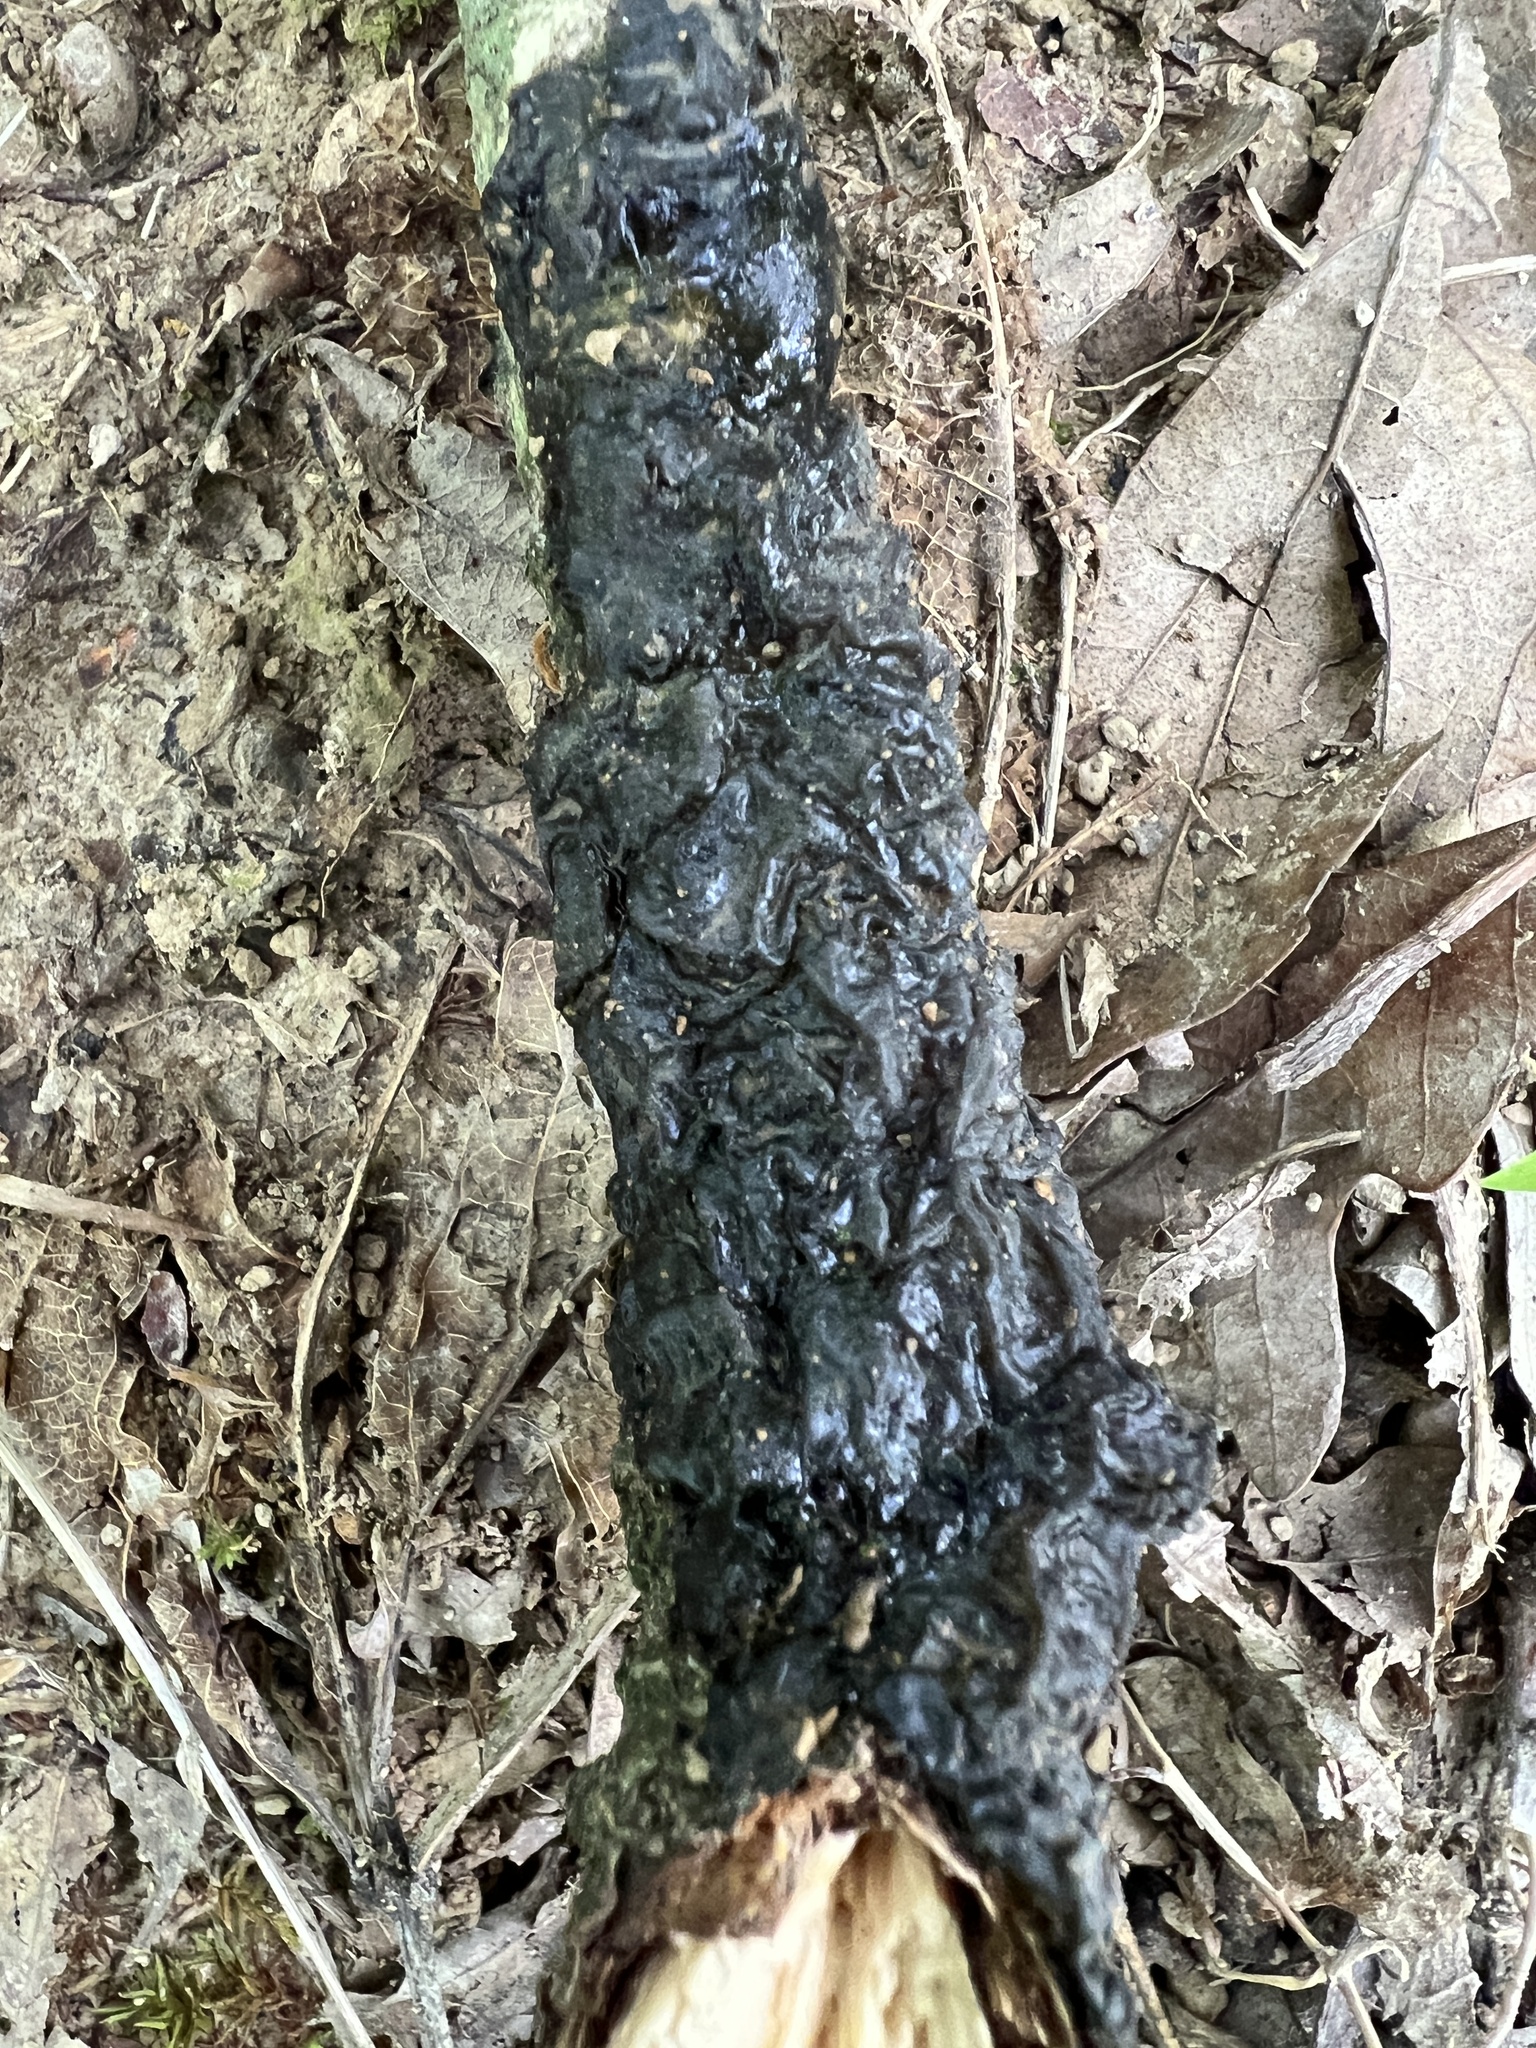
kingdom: Fungi
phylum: Basidiomycota
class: Agaricomycetes
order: Auriculariales
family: Auriculariaceae
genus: Exidia
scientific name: Exidia glandulosa
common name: Witches' butter
